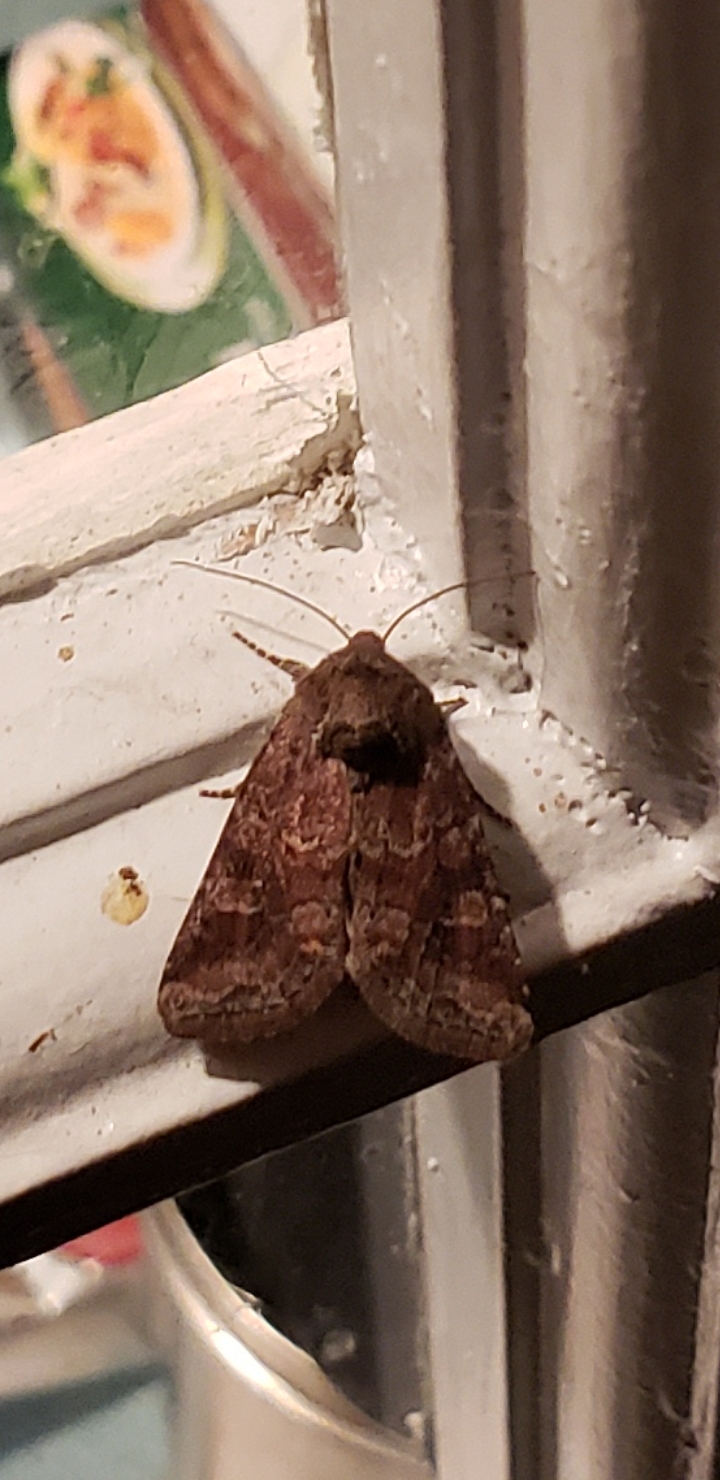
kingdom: Animalia
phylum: Arthropoda
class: Insecta
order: Lepidoptera
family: Noctuidae
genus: Lacinipolia
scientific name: Lacinipolia meditata
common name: Thinker moth
